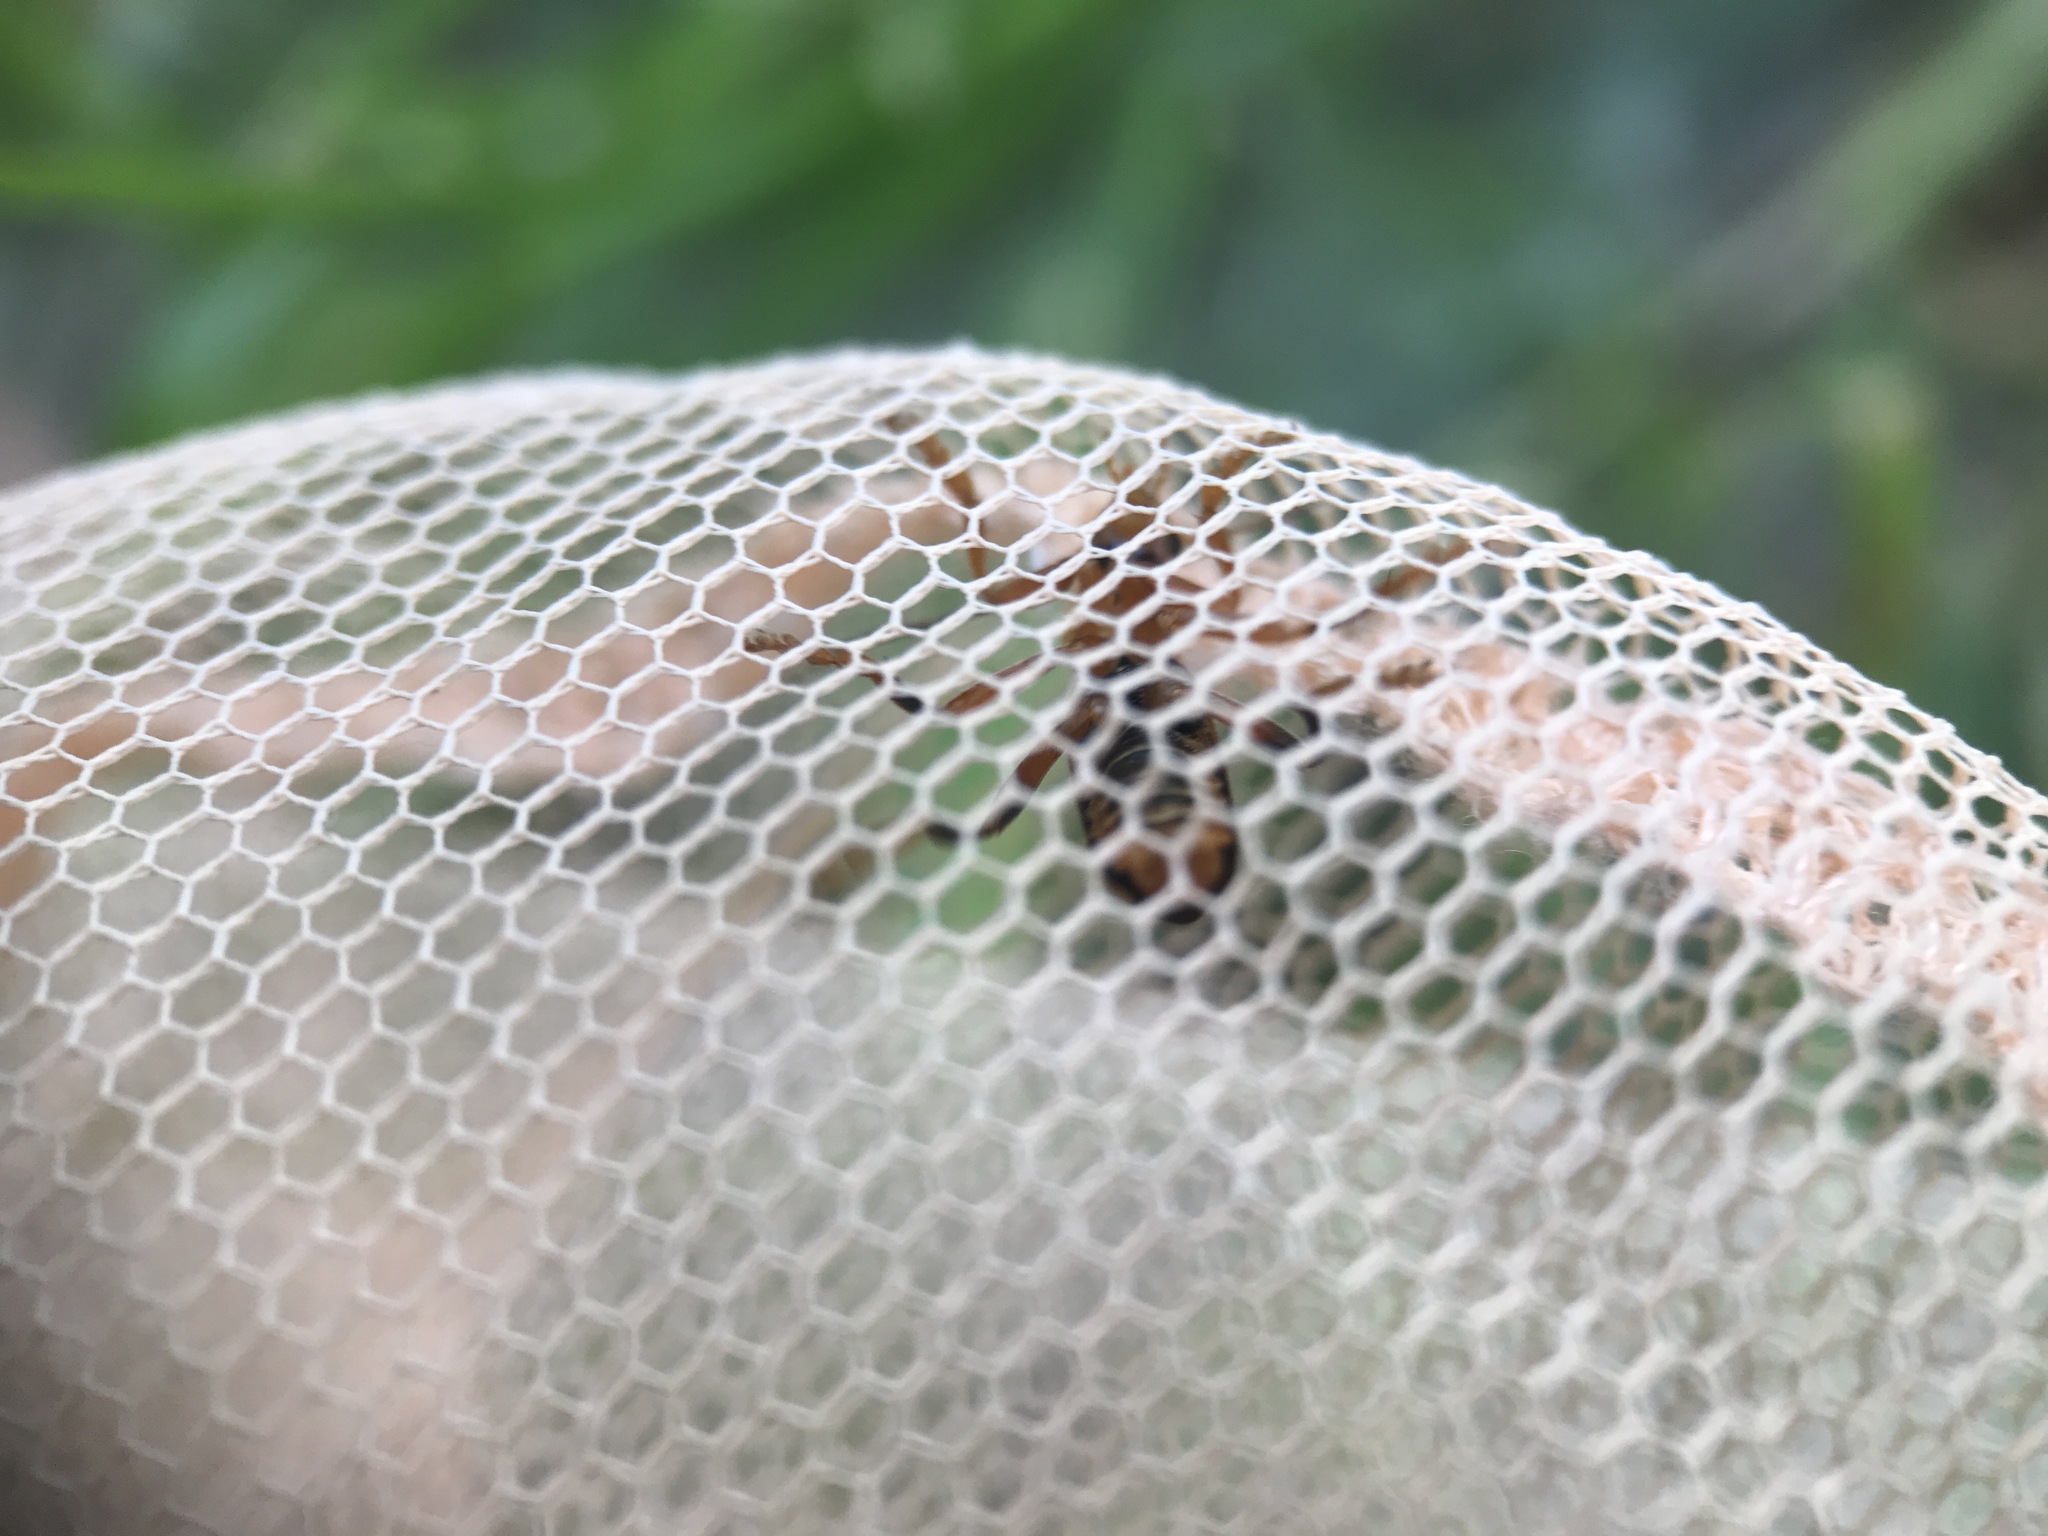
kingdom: Animalia
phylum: Arthropoda
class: Insecta
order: Coleoptera
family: Cantharidae
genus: Cantharis
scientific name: Cantharis livida
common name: Livid soldier beetle
